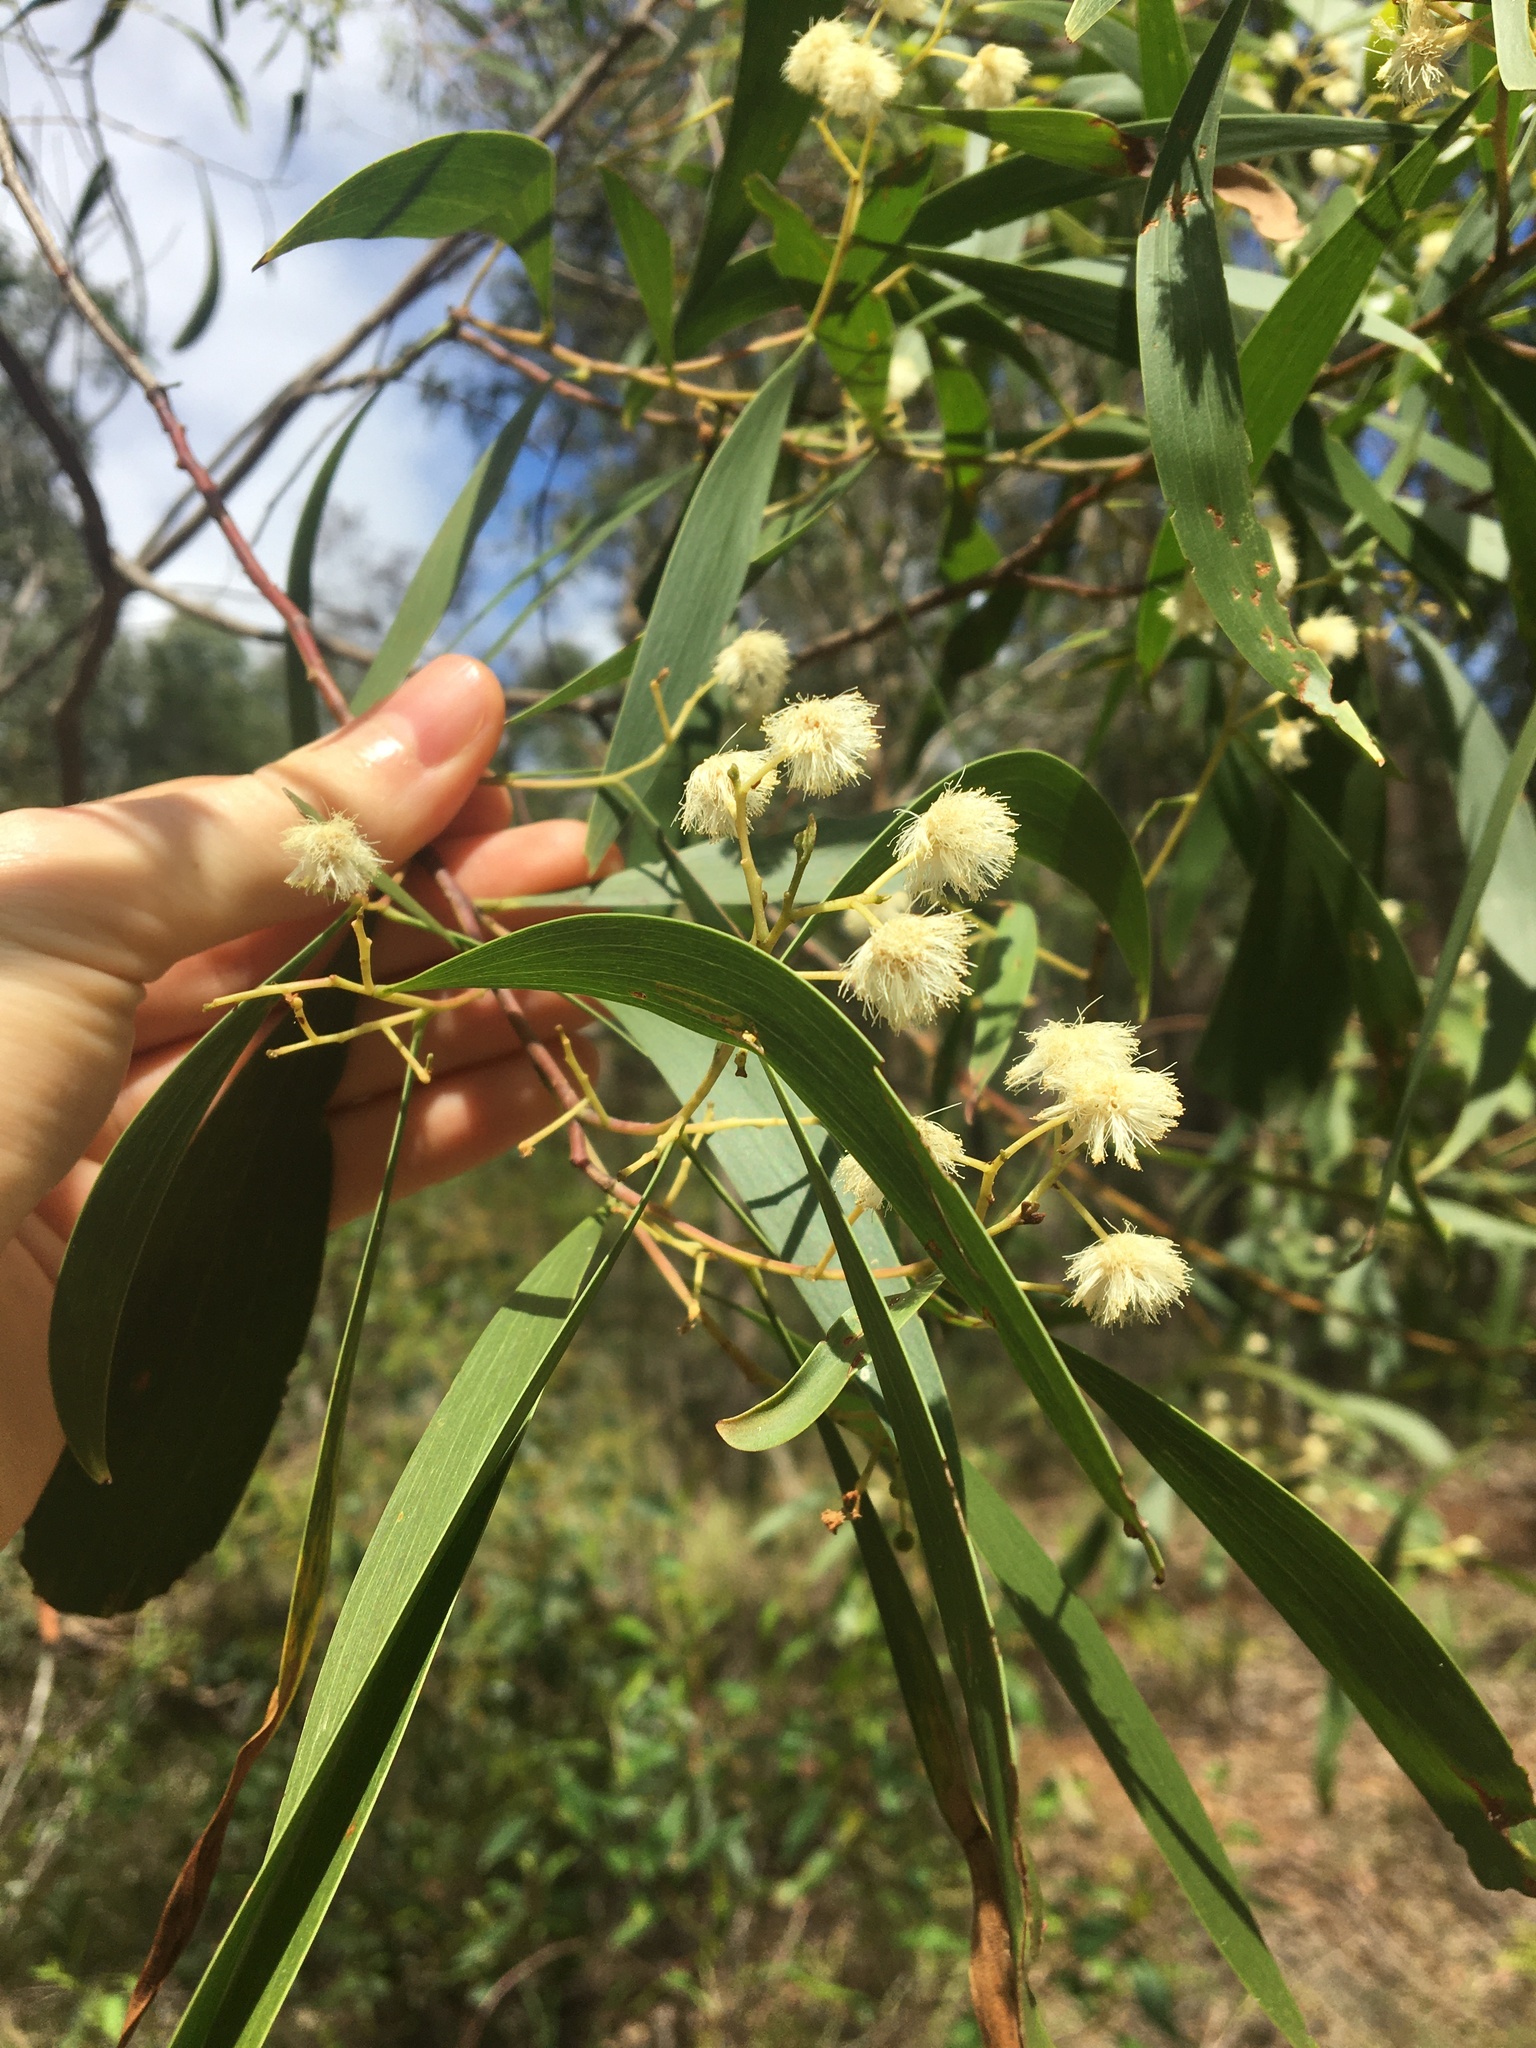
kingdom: Plantae
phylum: Tracheophyta
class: Magnoliopsida
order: Fabales
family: Fabaceae
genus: Acacia
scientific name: Acacia implexa
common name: Black wattle
